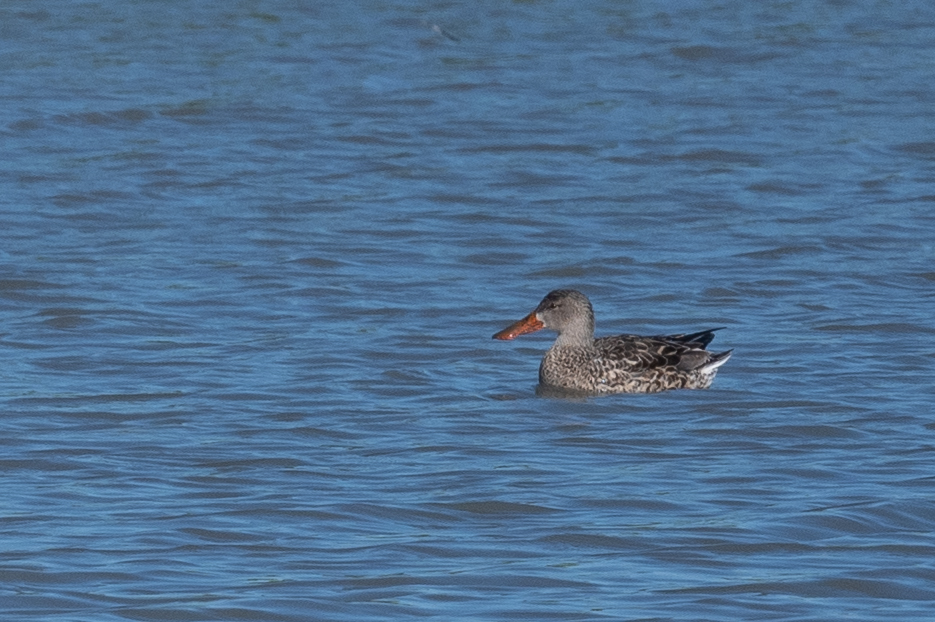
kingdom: Animalia
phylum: Chordata
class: Aves
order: Anseriformes
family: Anatidae
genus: Spatula
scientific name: Spatula clypeata
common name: Northern shoveler
